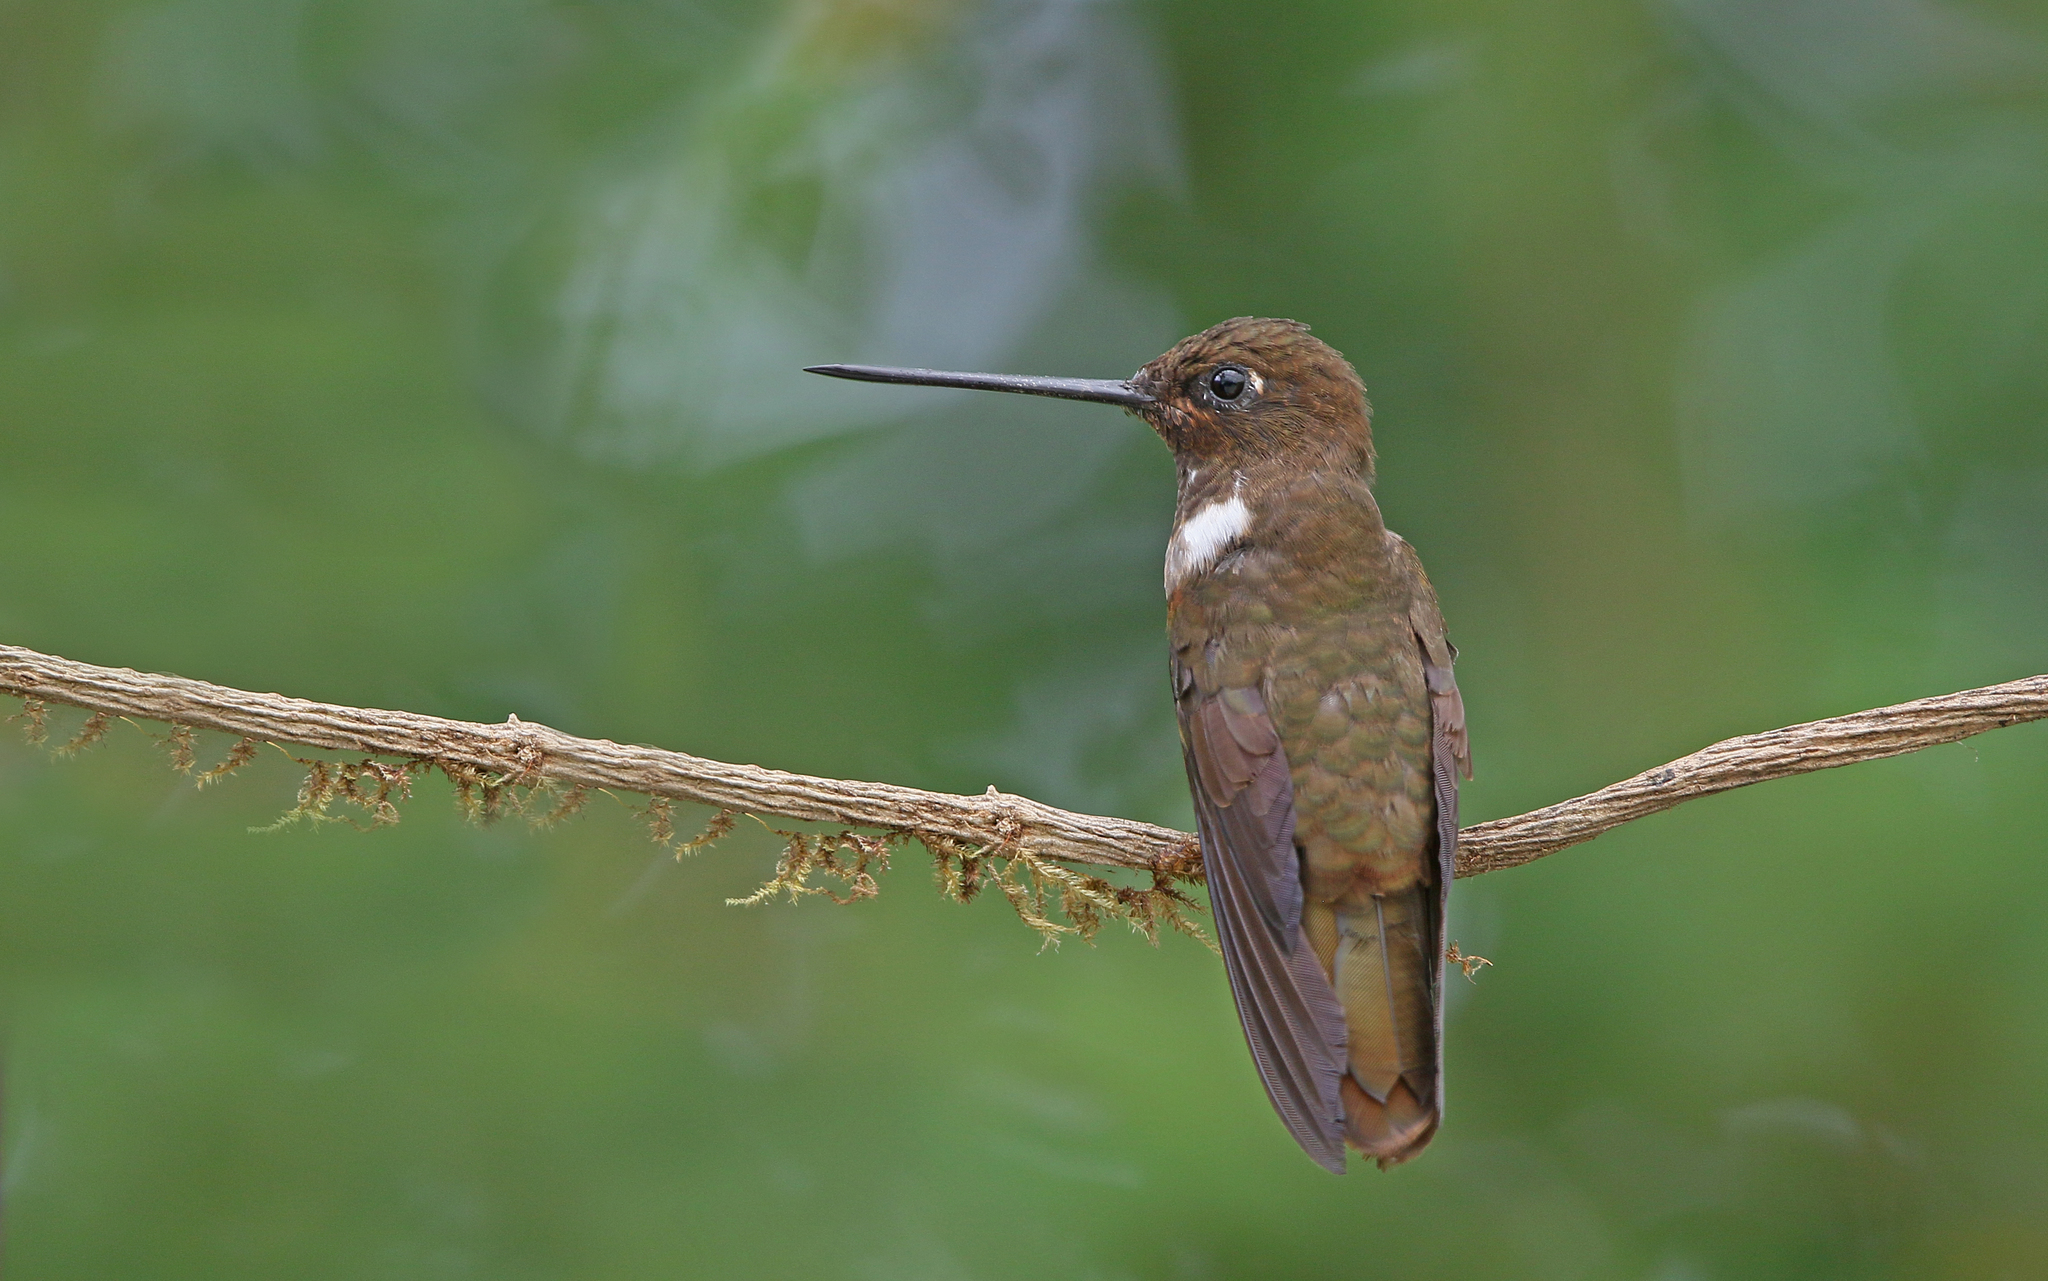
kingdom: Animalia
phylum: Chordata
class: Aves
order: Apodiformes
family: Trochilidae
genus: Coeligena
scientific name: Coeligena wilsoni
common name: Brown inca
